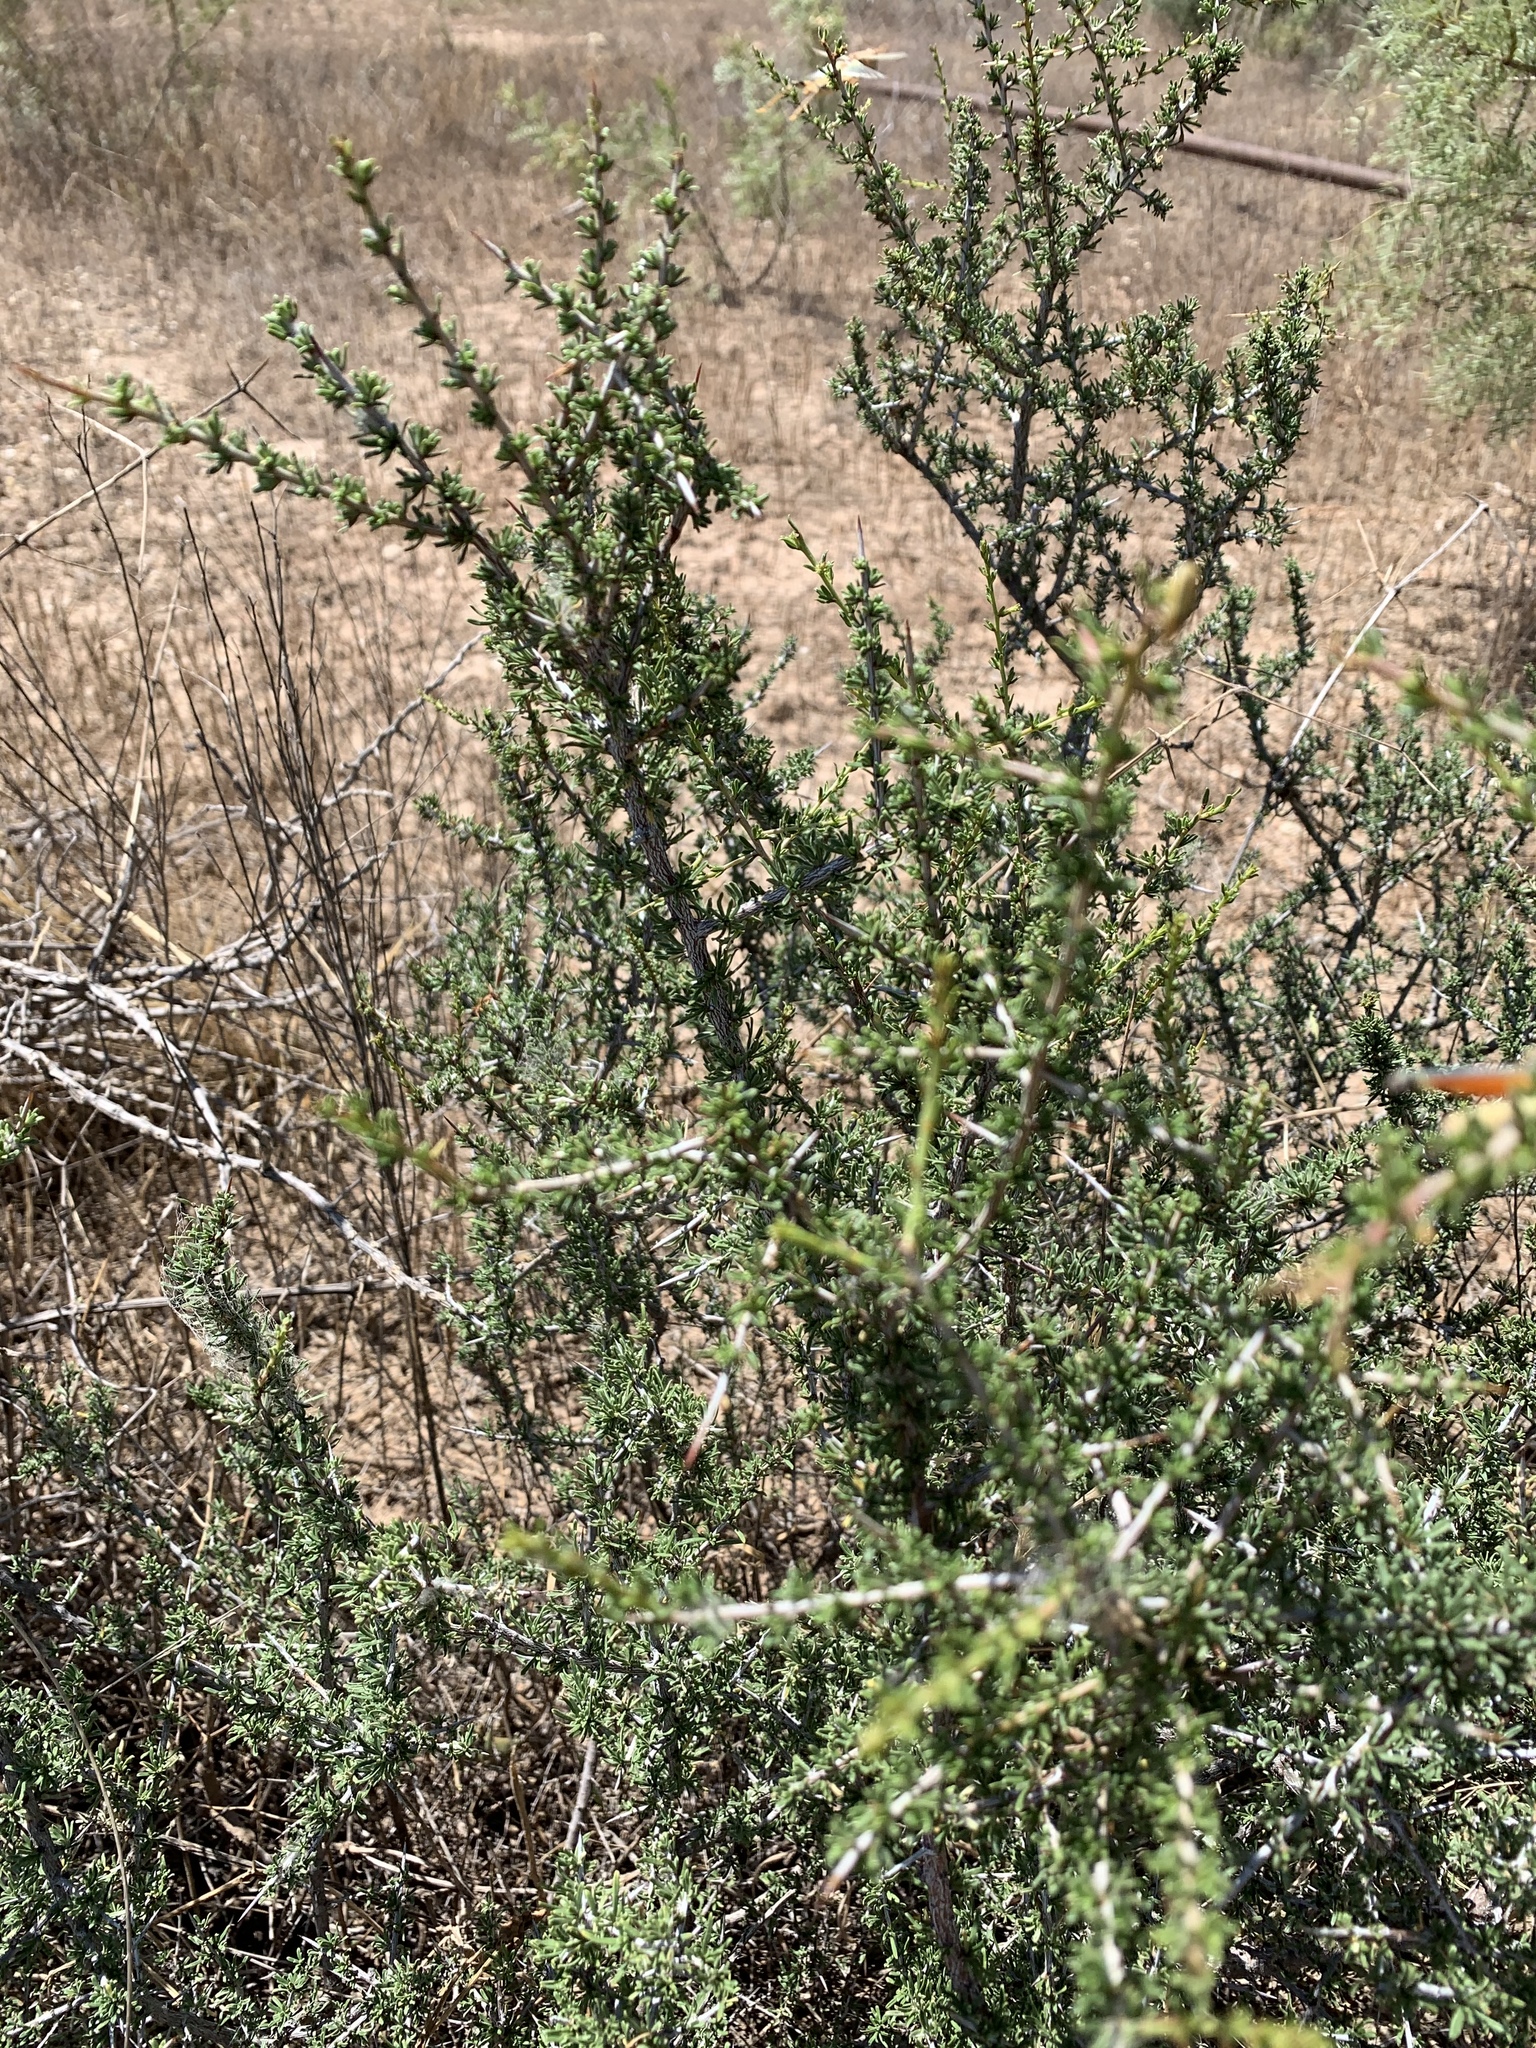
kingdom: Plantae
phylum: Tracheophyta
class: Magnoliopsida
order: Rosales
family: Rhamnaceae
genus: Condalia
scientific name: Condalia ericoides
